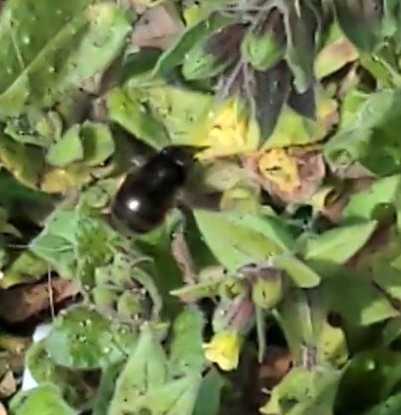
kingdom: Animalia
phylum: Arthropoda
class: Insecta
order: Hymenoptera
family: Apidae
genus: Anthophora
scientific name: Anthophora plumipes
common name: Hairy-footed flower bee
